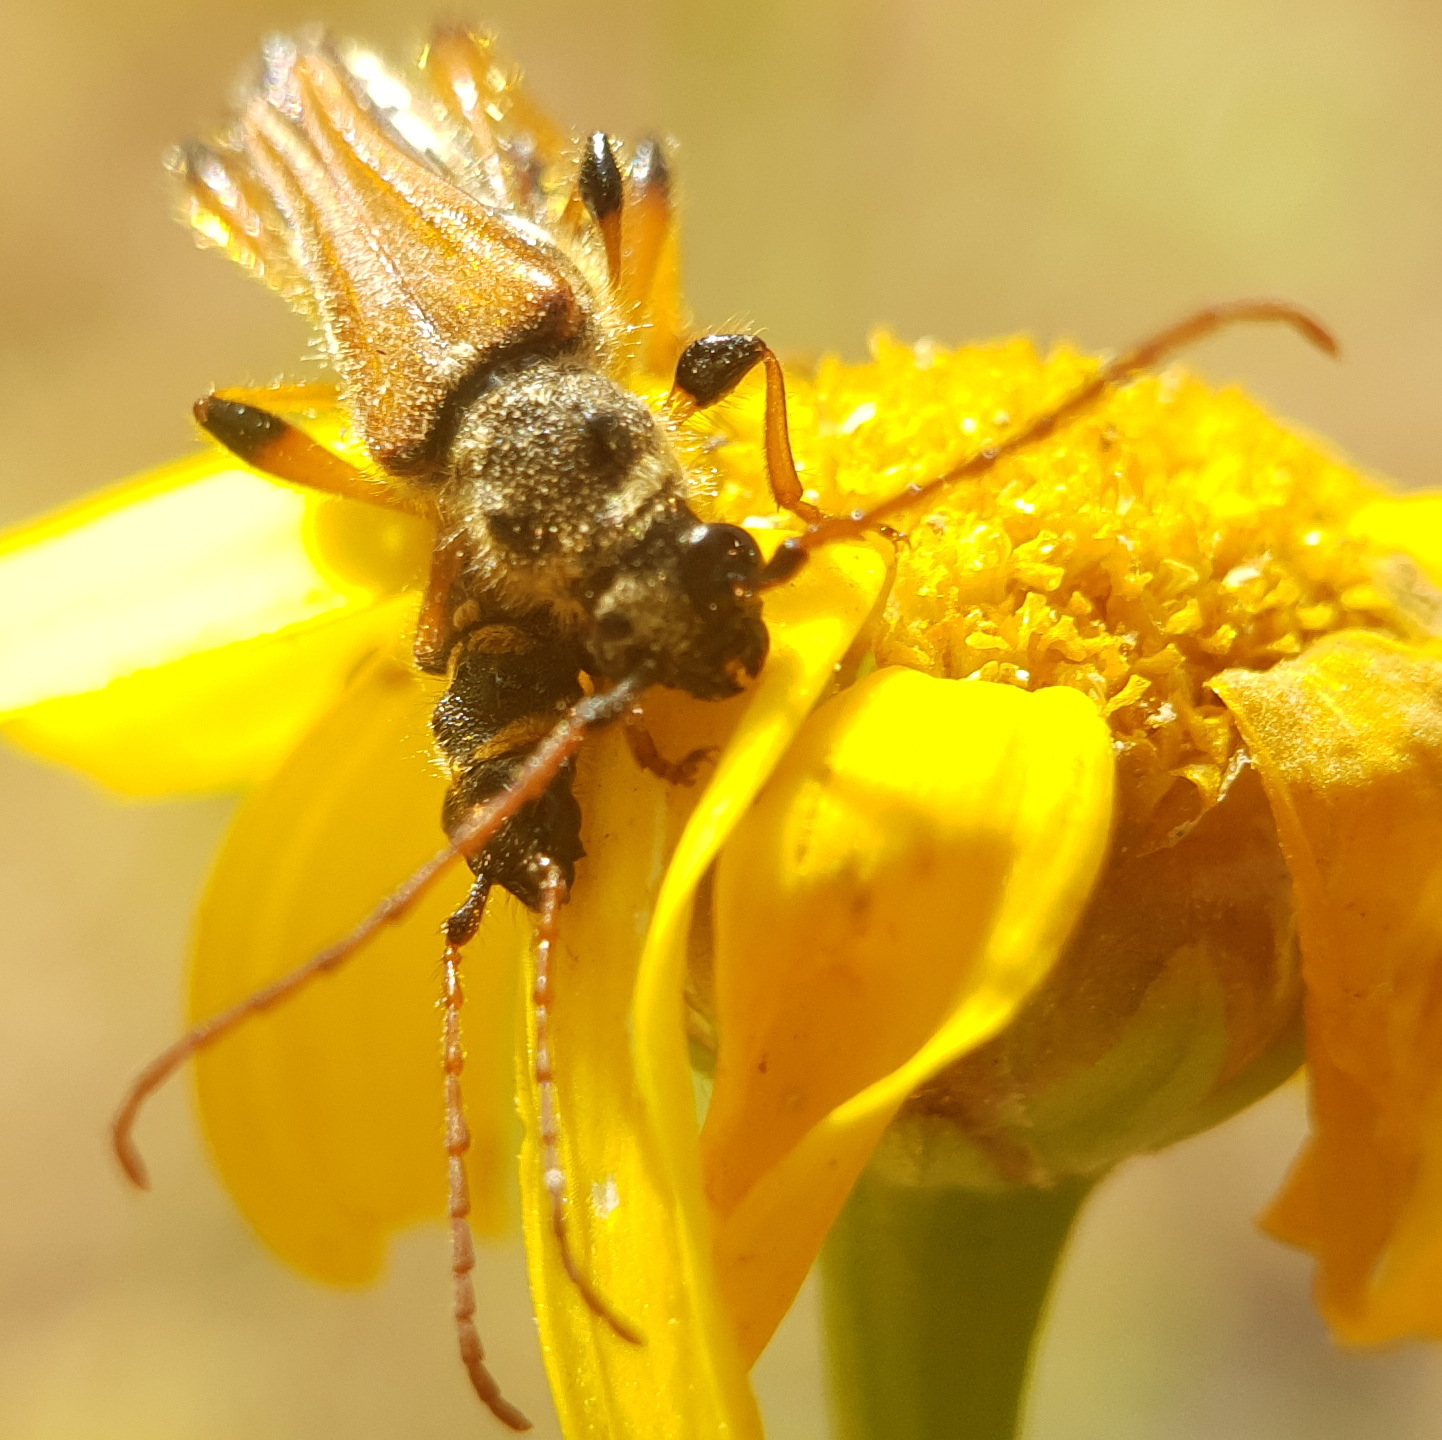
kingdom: Animalia
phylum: Arthropoda
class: Insecta
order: Coleoptera
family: Cerambycidae
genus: Stenopterus
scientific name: Stenopterus rufus
